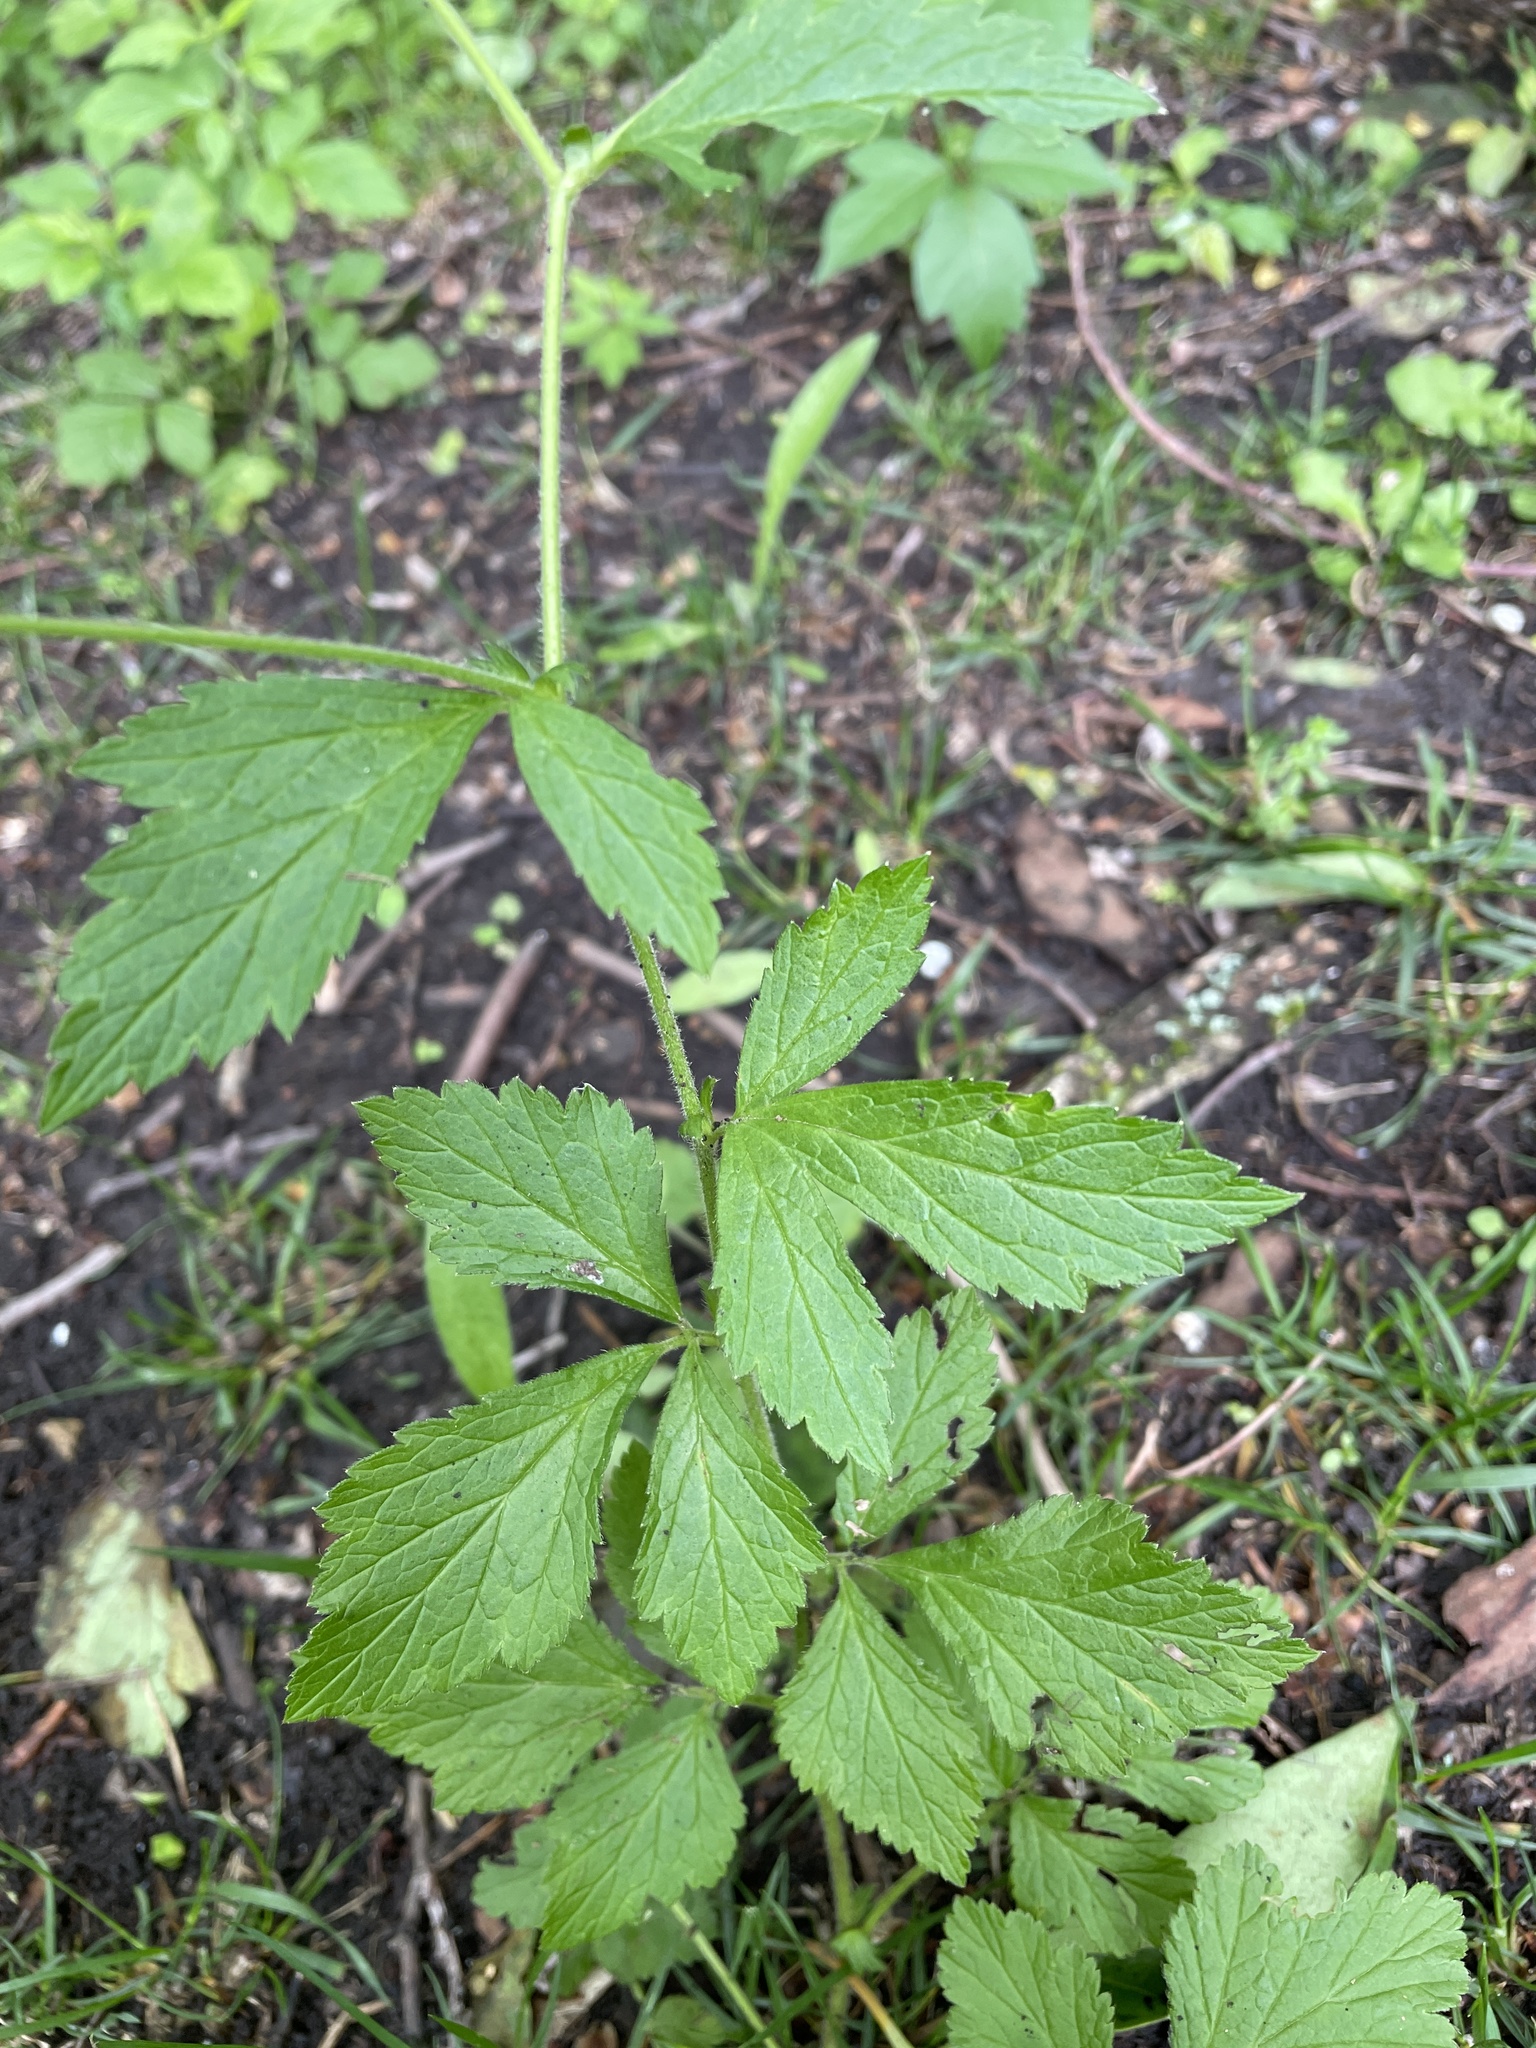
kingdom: Plantae
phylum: Tracheophyta
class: Magnoliopsida
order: Rosales
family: Rosaceae
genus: Geum
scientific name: Geum canadense
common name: White avens
